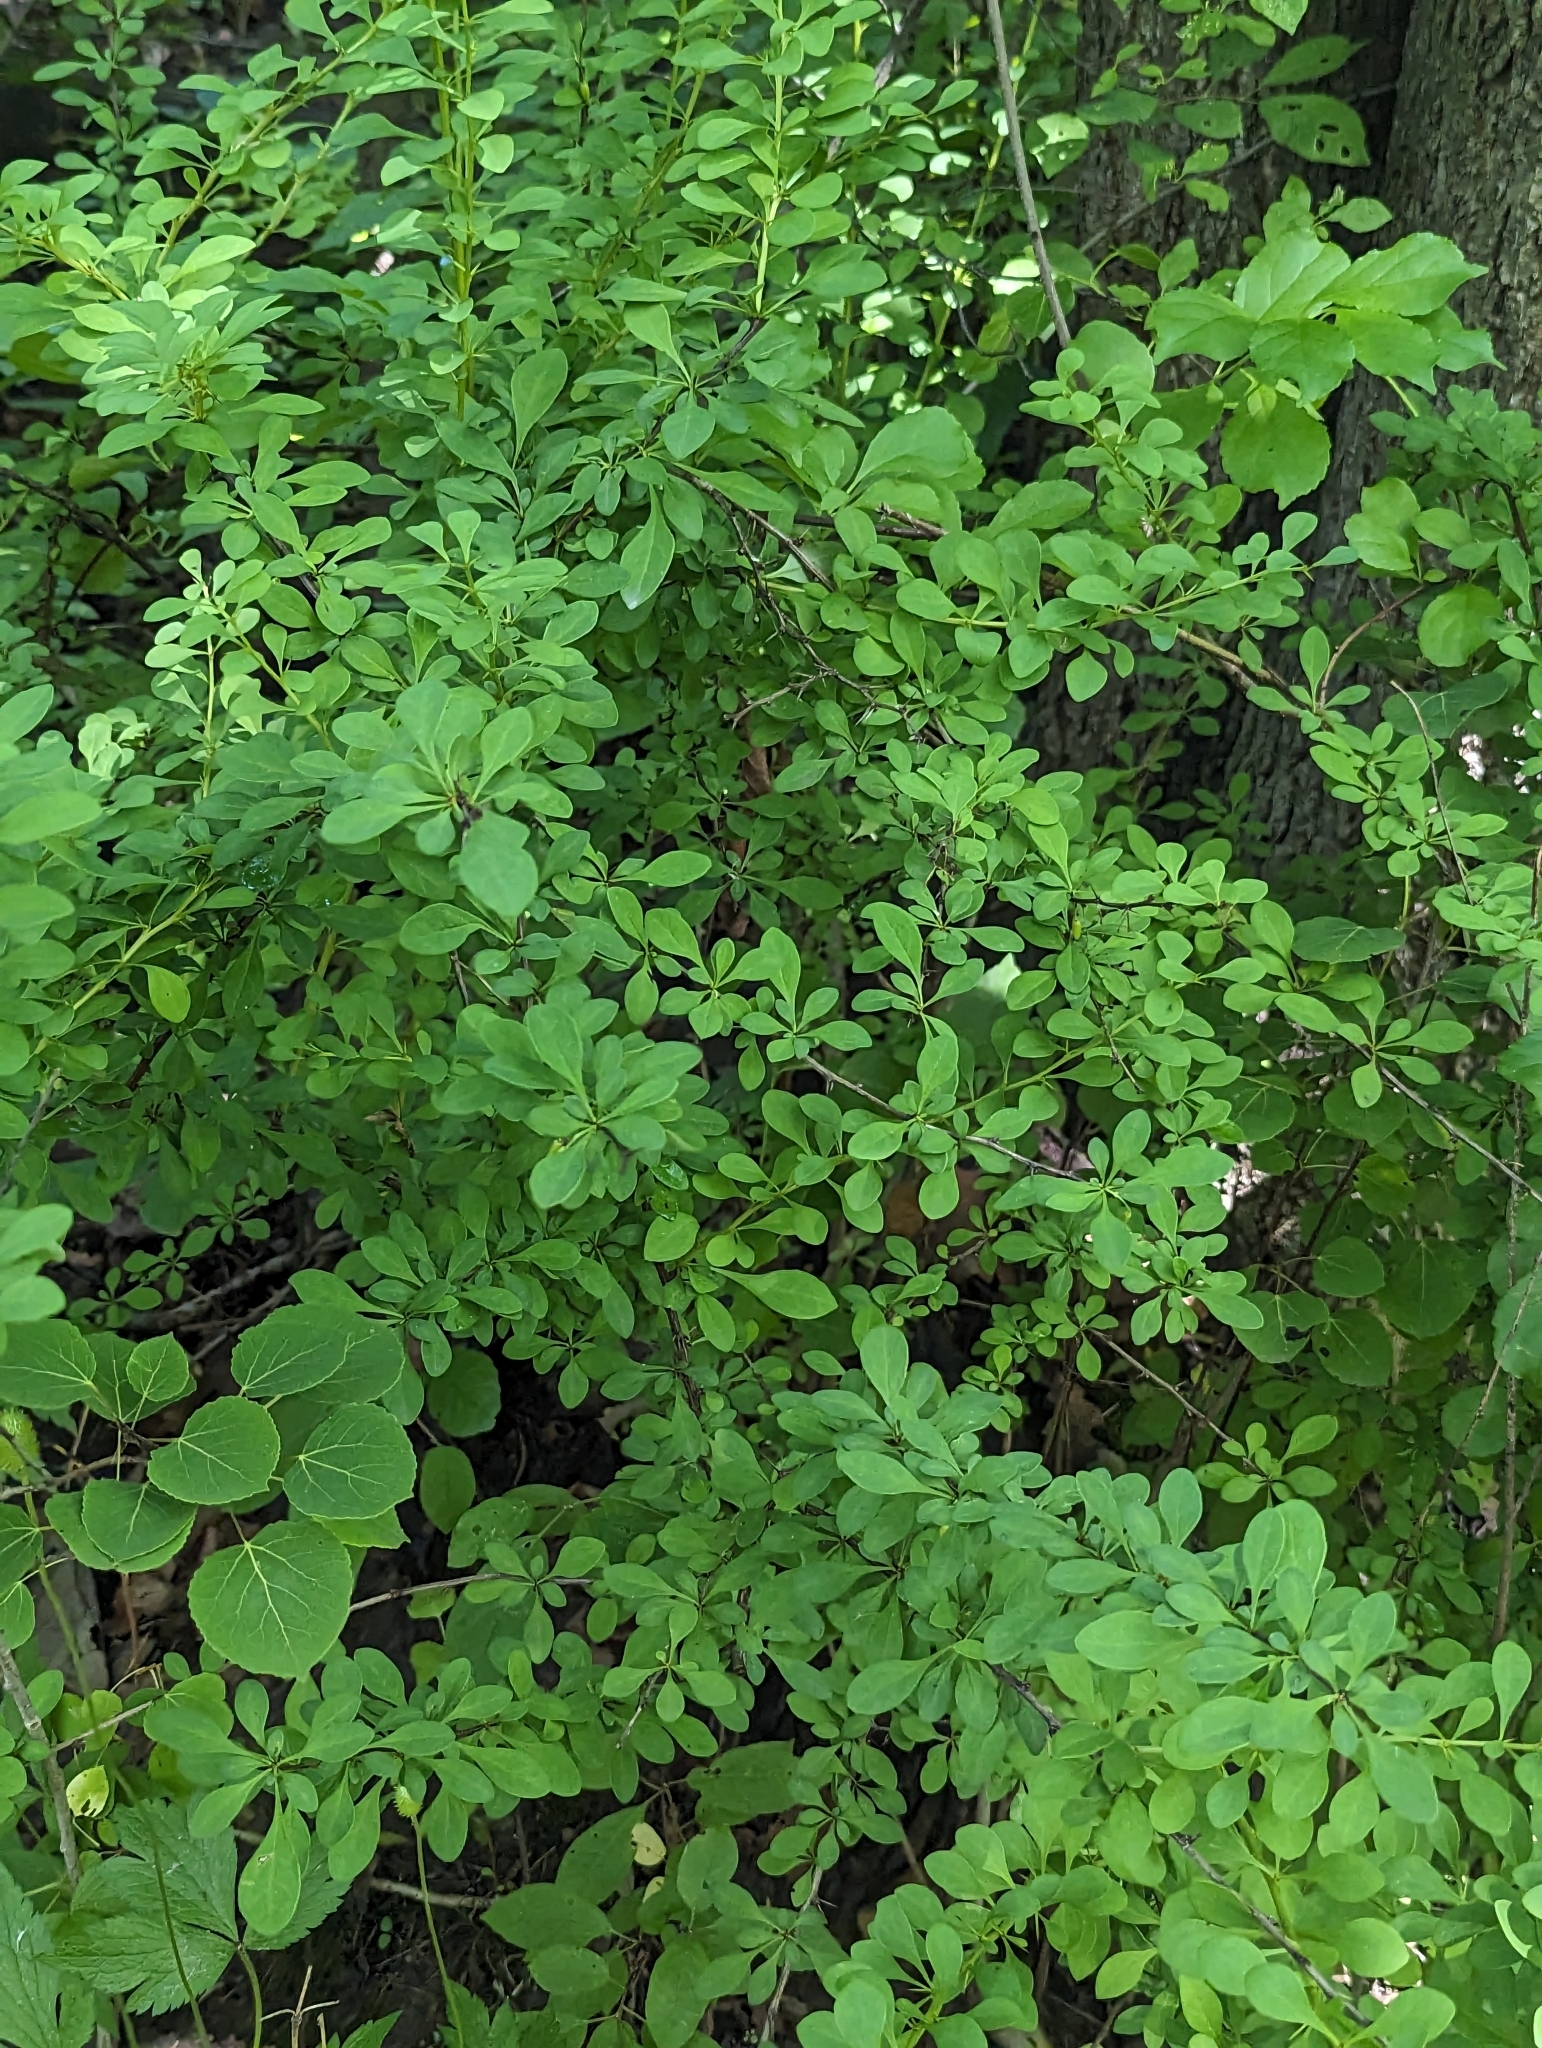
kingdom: Plantae
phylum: Tracheophyta
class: Magnoliopsida
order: Ranunculales
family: Berberidaceae
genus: Berberis
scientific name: Berberis thunbergii
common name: Japanese barberry
